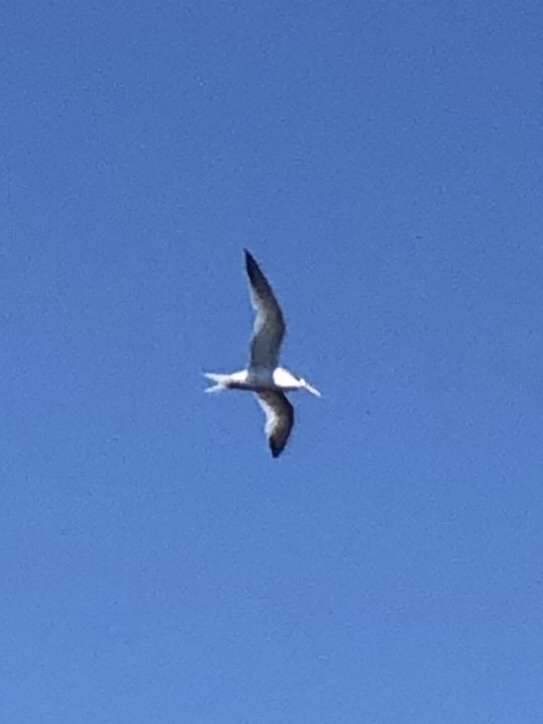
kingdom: Animalia
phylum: Chordata
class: Aves
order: Charadriiformes
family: Laridae
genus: Thalasseus
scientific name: Thalasseus elegans
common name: Elegant tern
